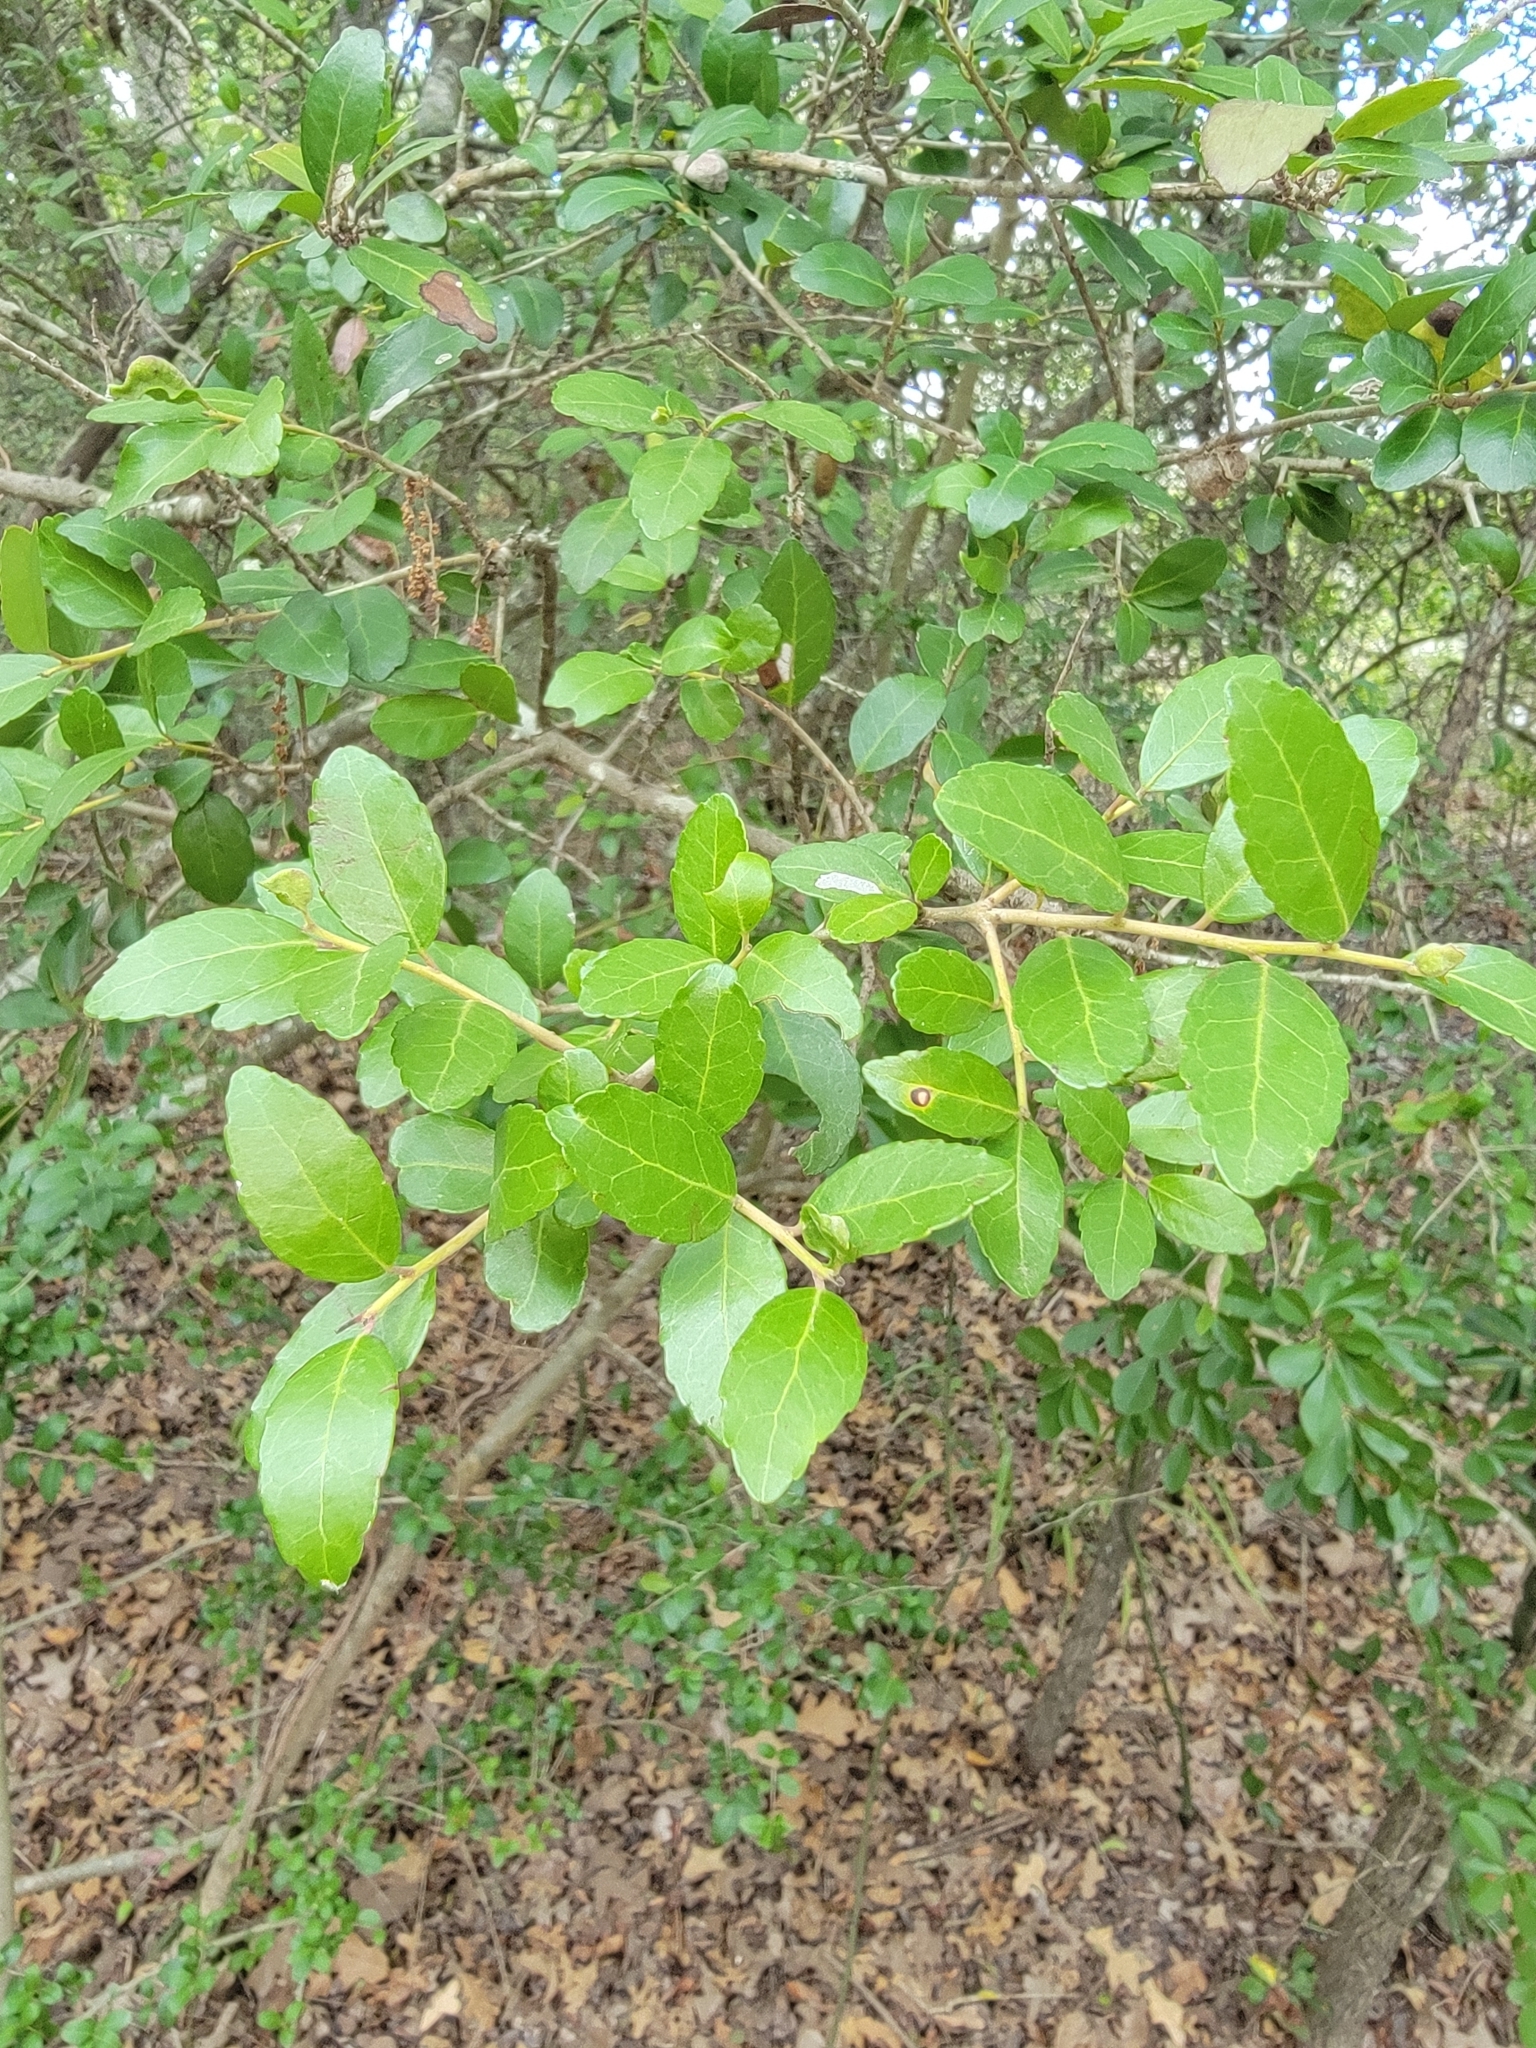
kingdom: Plantae
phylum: Tracheophyta
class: Magnoliopsida
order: Aquifoliales
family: Aquifoliaceae
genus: Ilex
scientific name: Ilex vomitoria
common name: Yaupon holly
